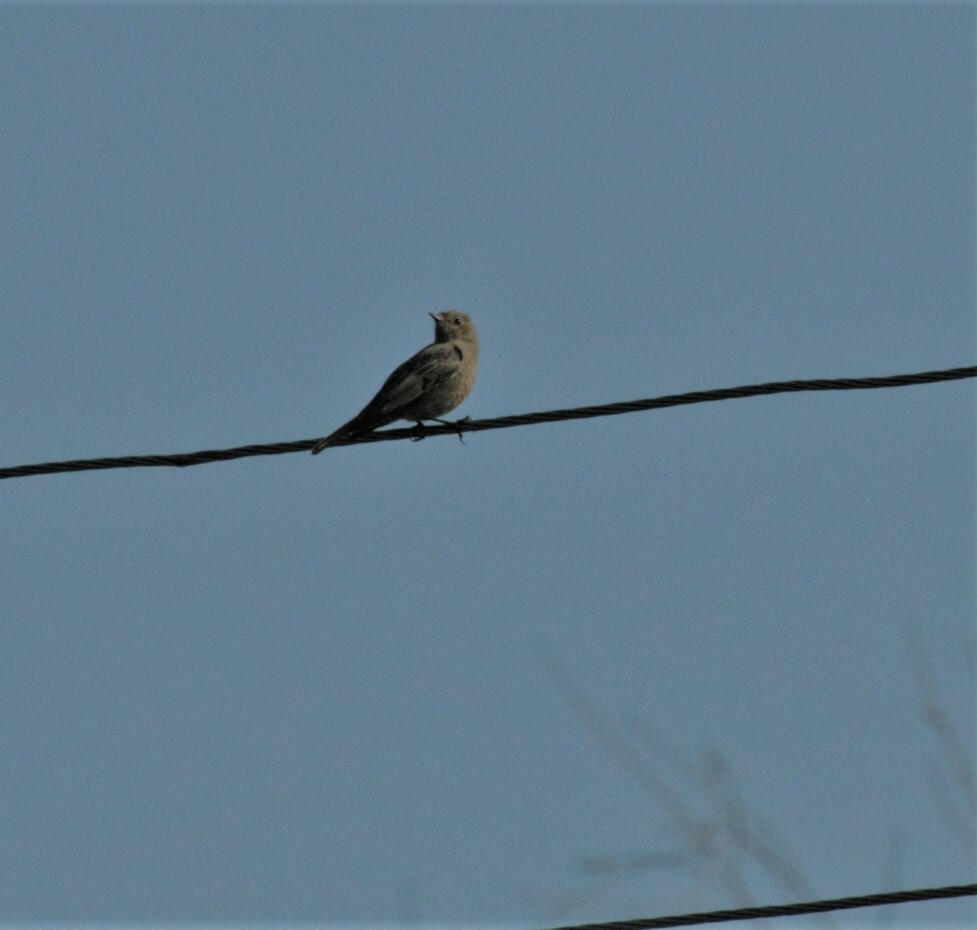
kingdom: Animalia
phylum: Chordata
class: Aves
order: Passeriformes
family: Muscicapidae
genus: Phoenicurus
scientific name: Phoenicurus ochruros
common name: Black redstart
